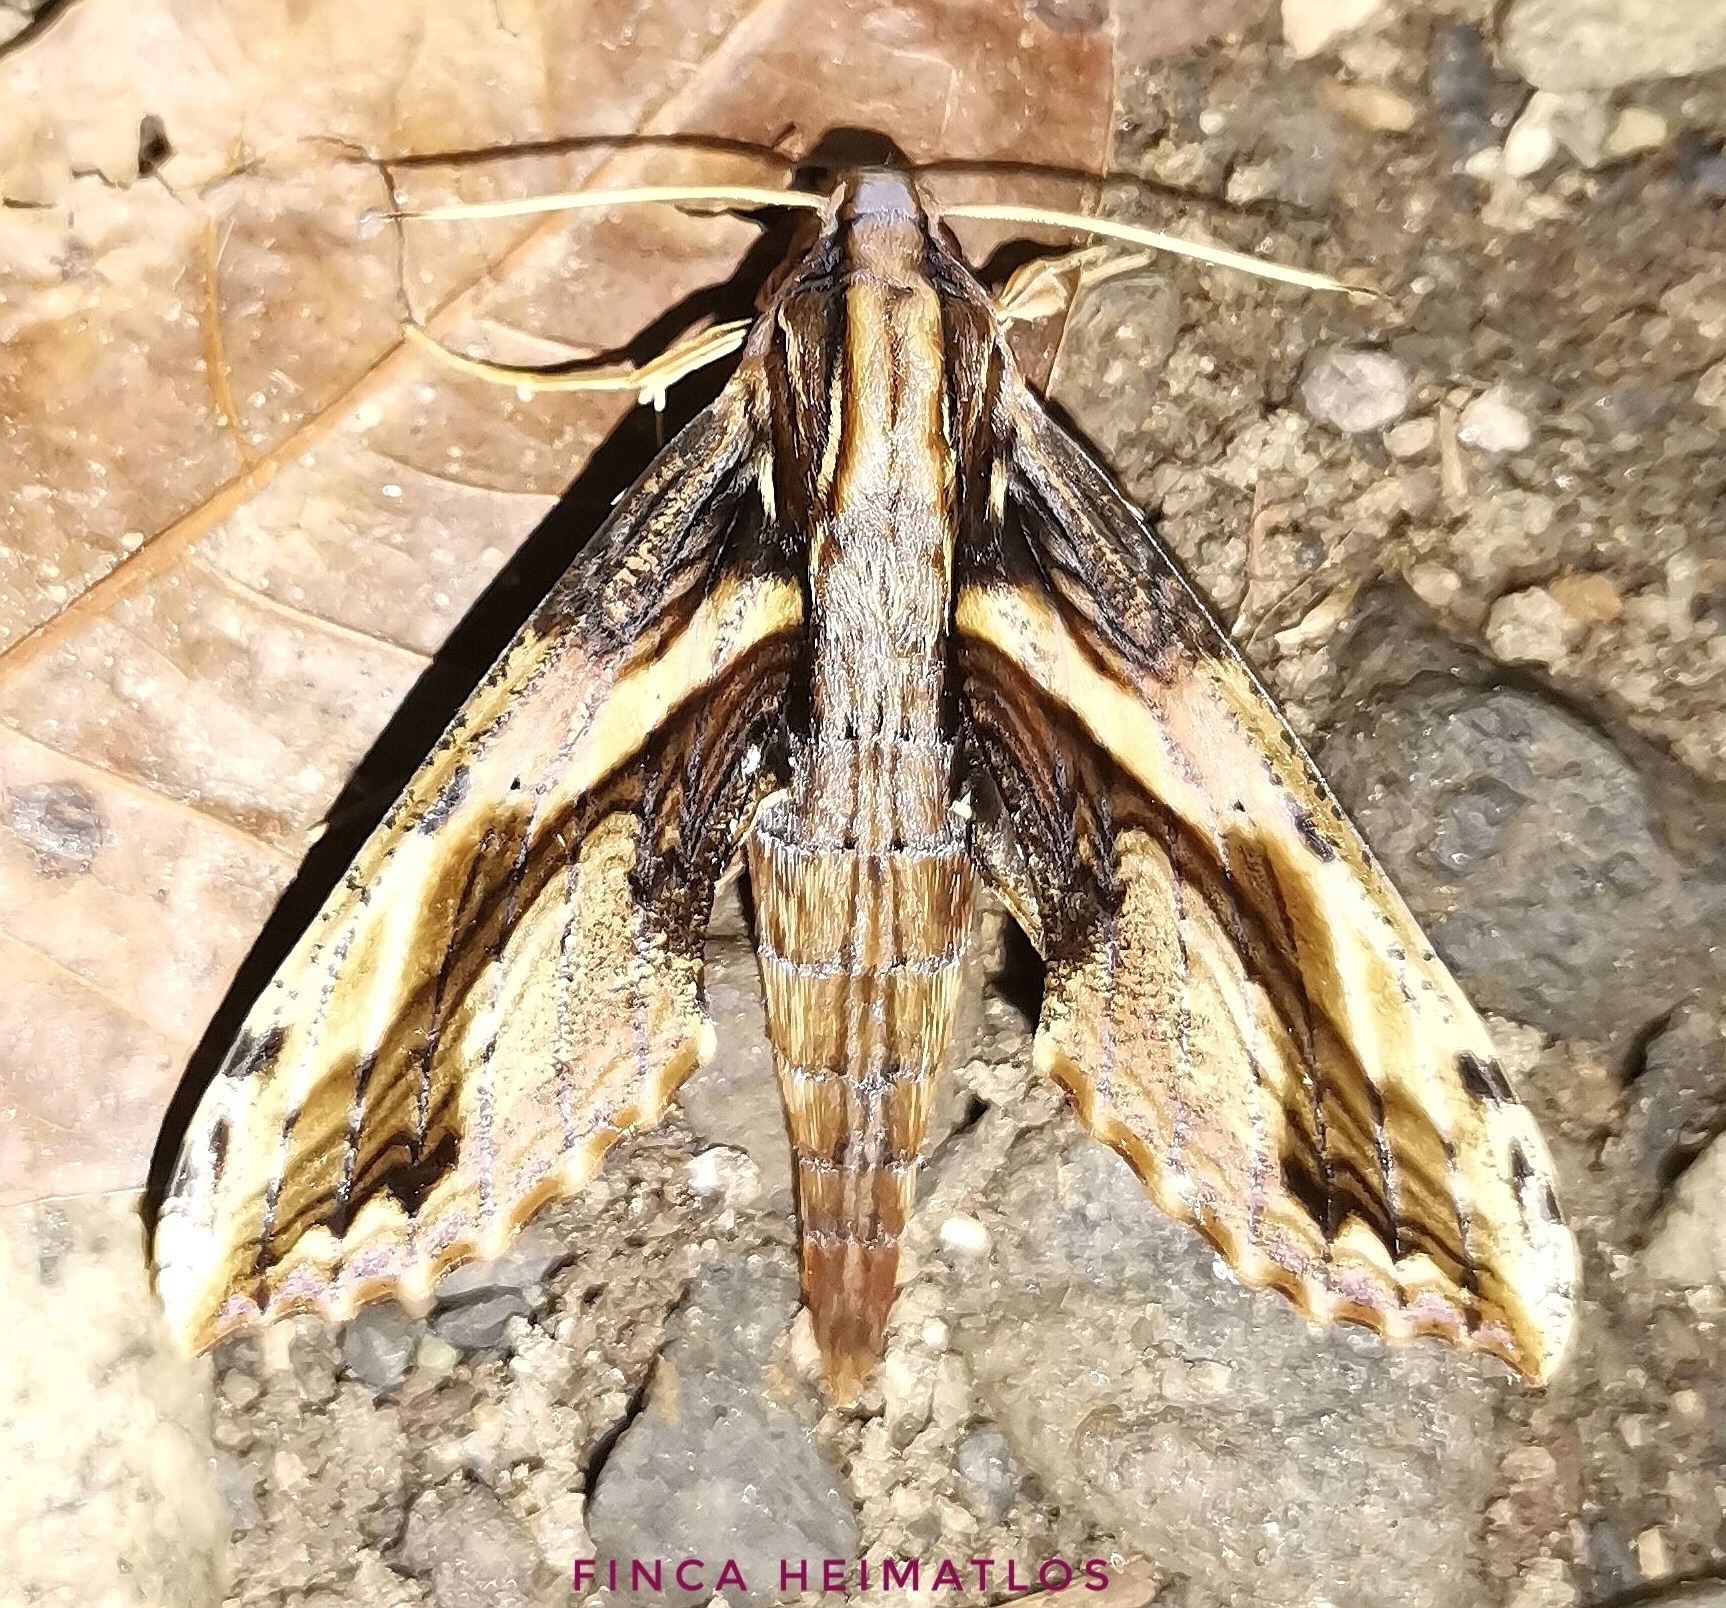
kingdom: Animalia
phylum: Arthropoda
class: Insecta
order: Lepidoptera
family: Sphingidae
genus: Xylophanes
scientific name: Xylophanes ceratomioides
